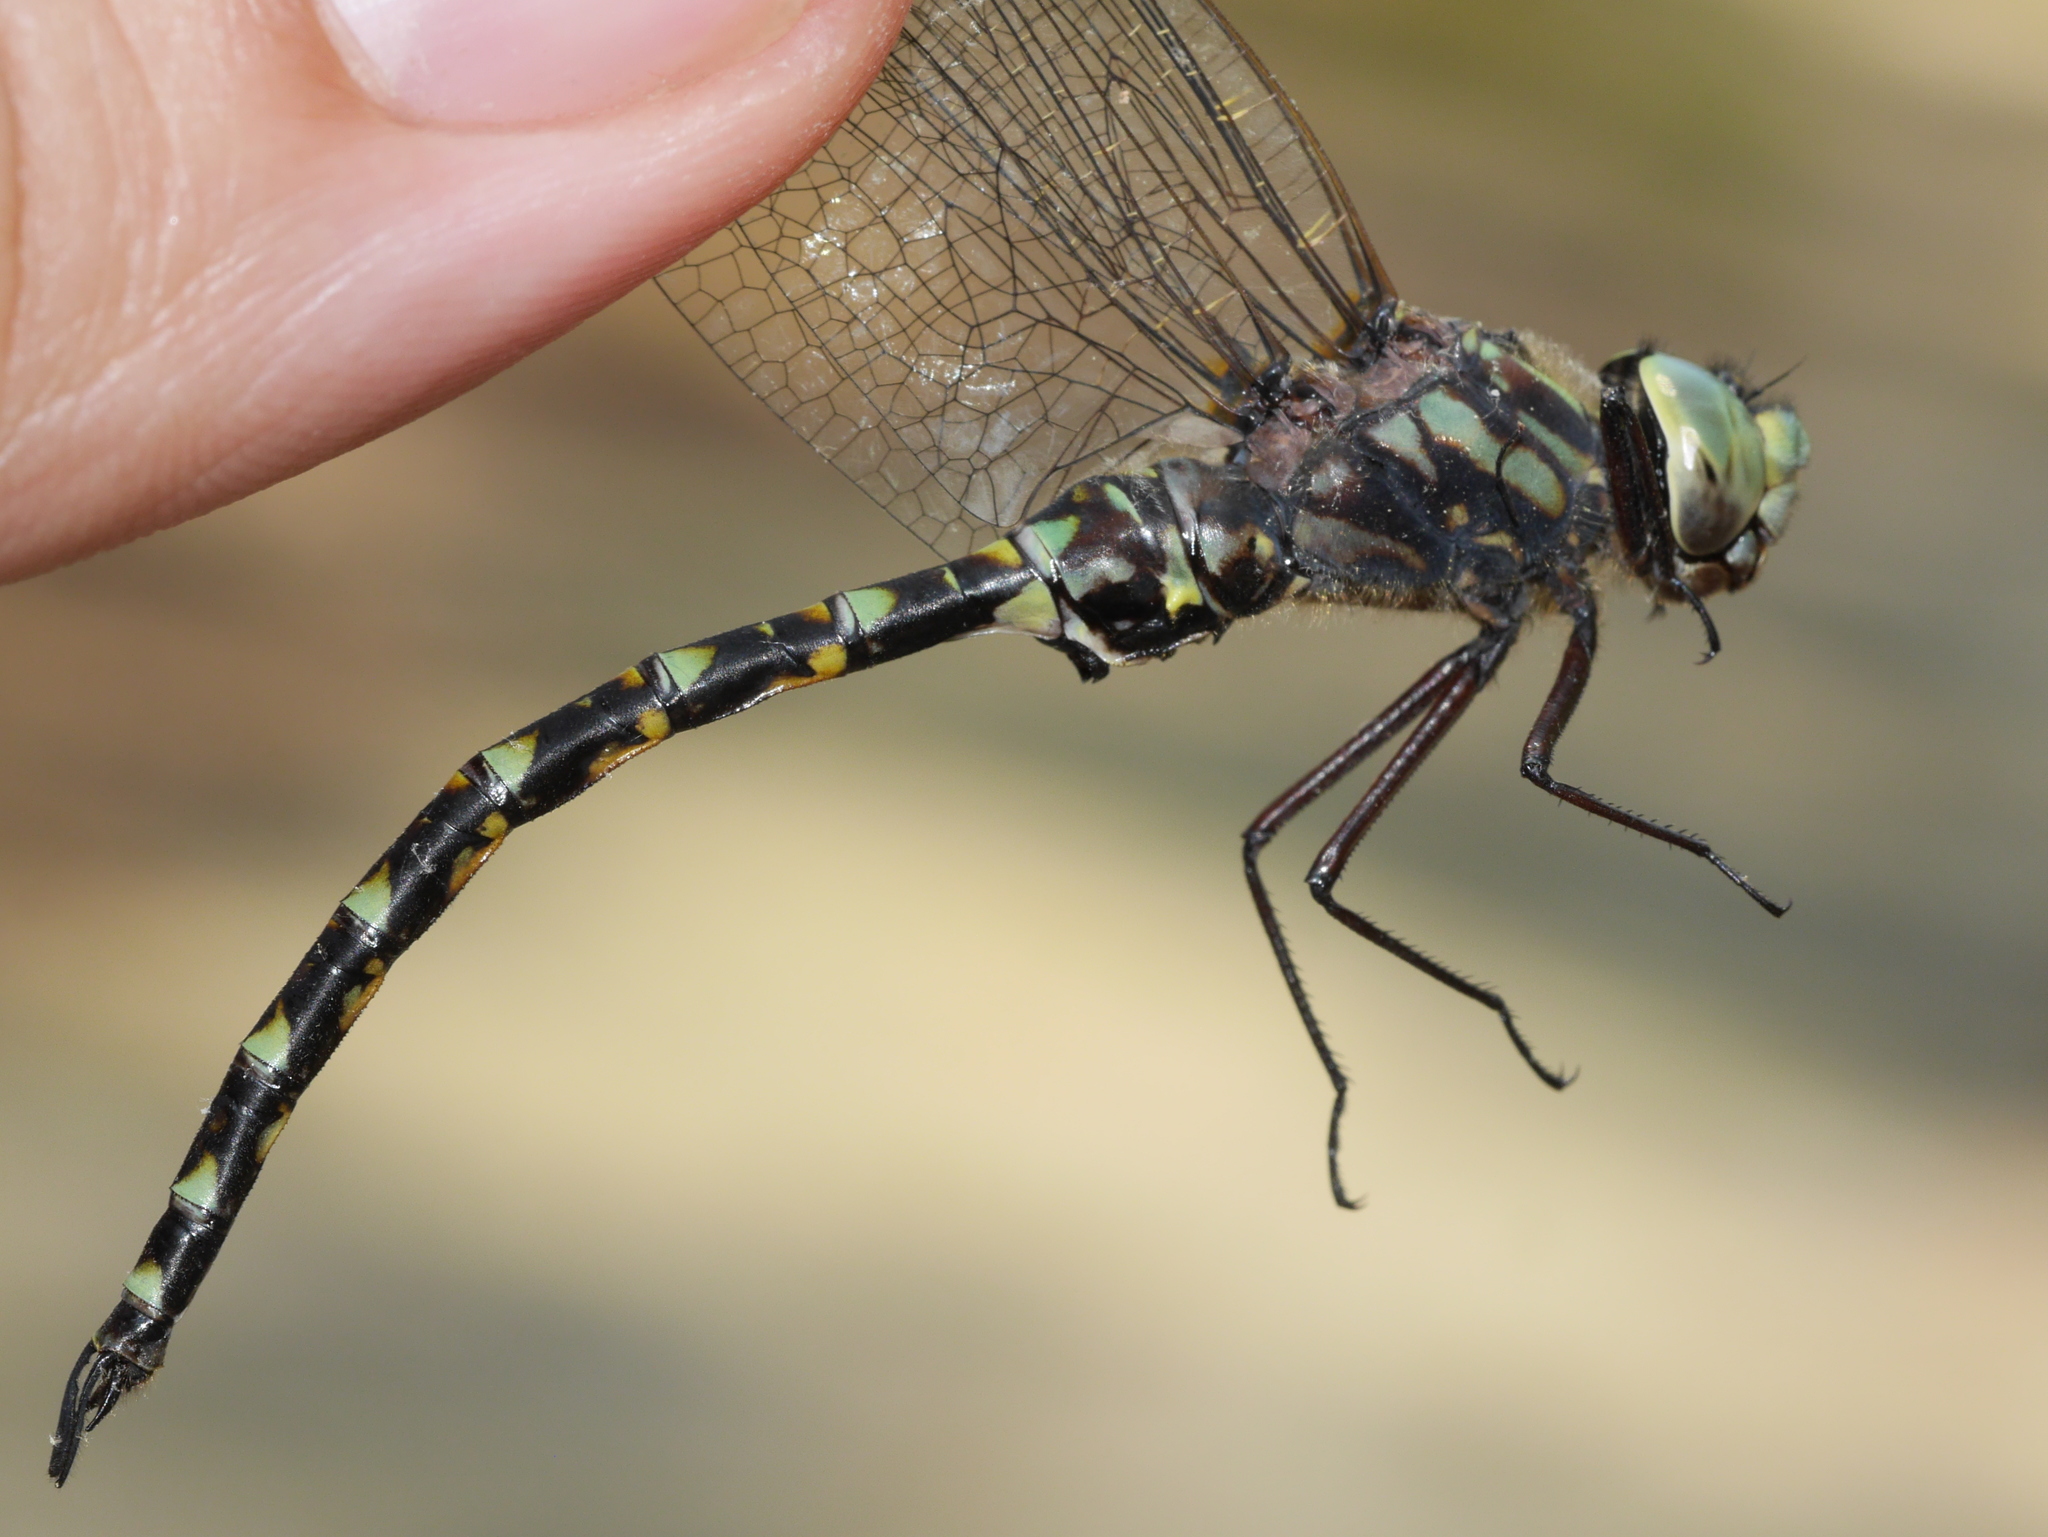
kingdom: Animalia
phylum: Arthropoda
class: Insecta
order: Odonata
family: Aeshnidae
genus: Gomphaeschna
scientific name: Gomphaeschna furcillata
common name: Harlequin darner
